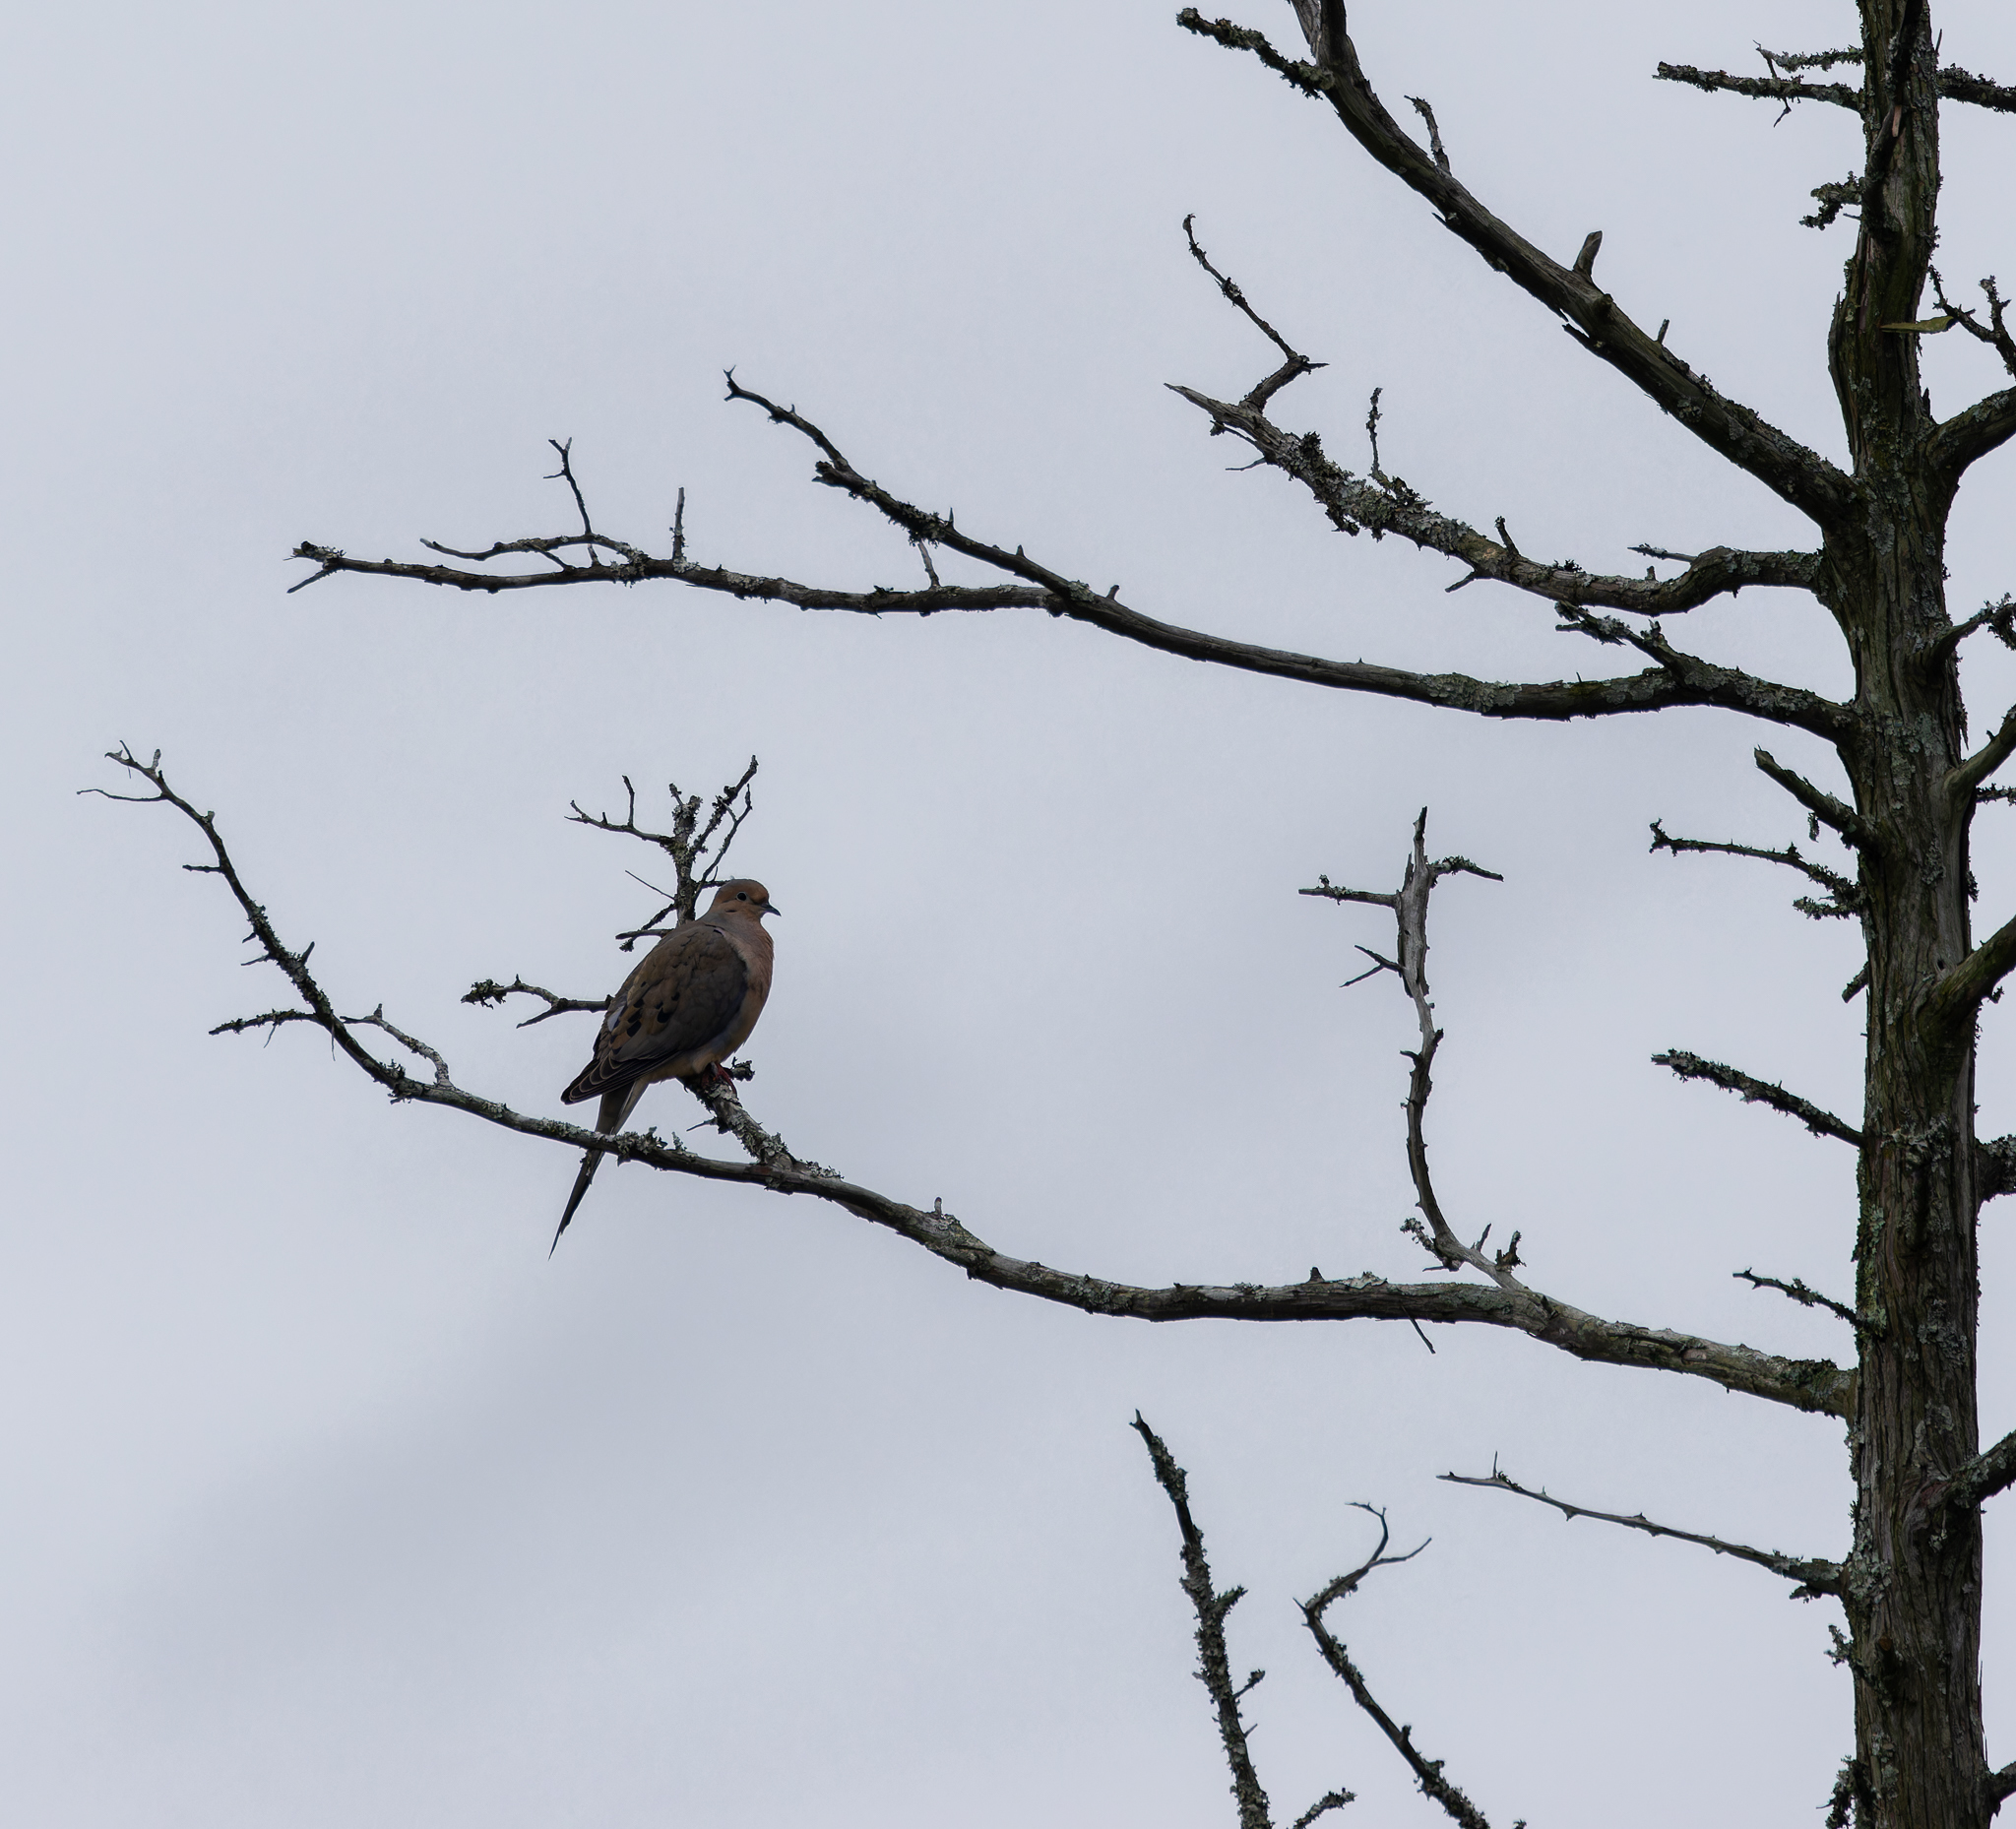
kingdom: Animalia
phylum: Chordata
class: Aves
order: Columbiformes
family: Columbidae
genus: Zenaida
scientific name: Zenaida macroura
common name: Mourning dove
